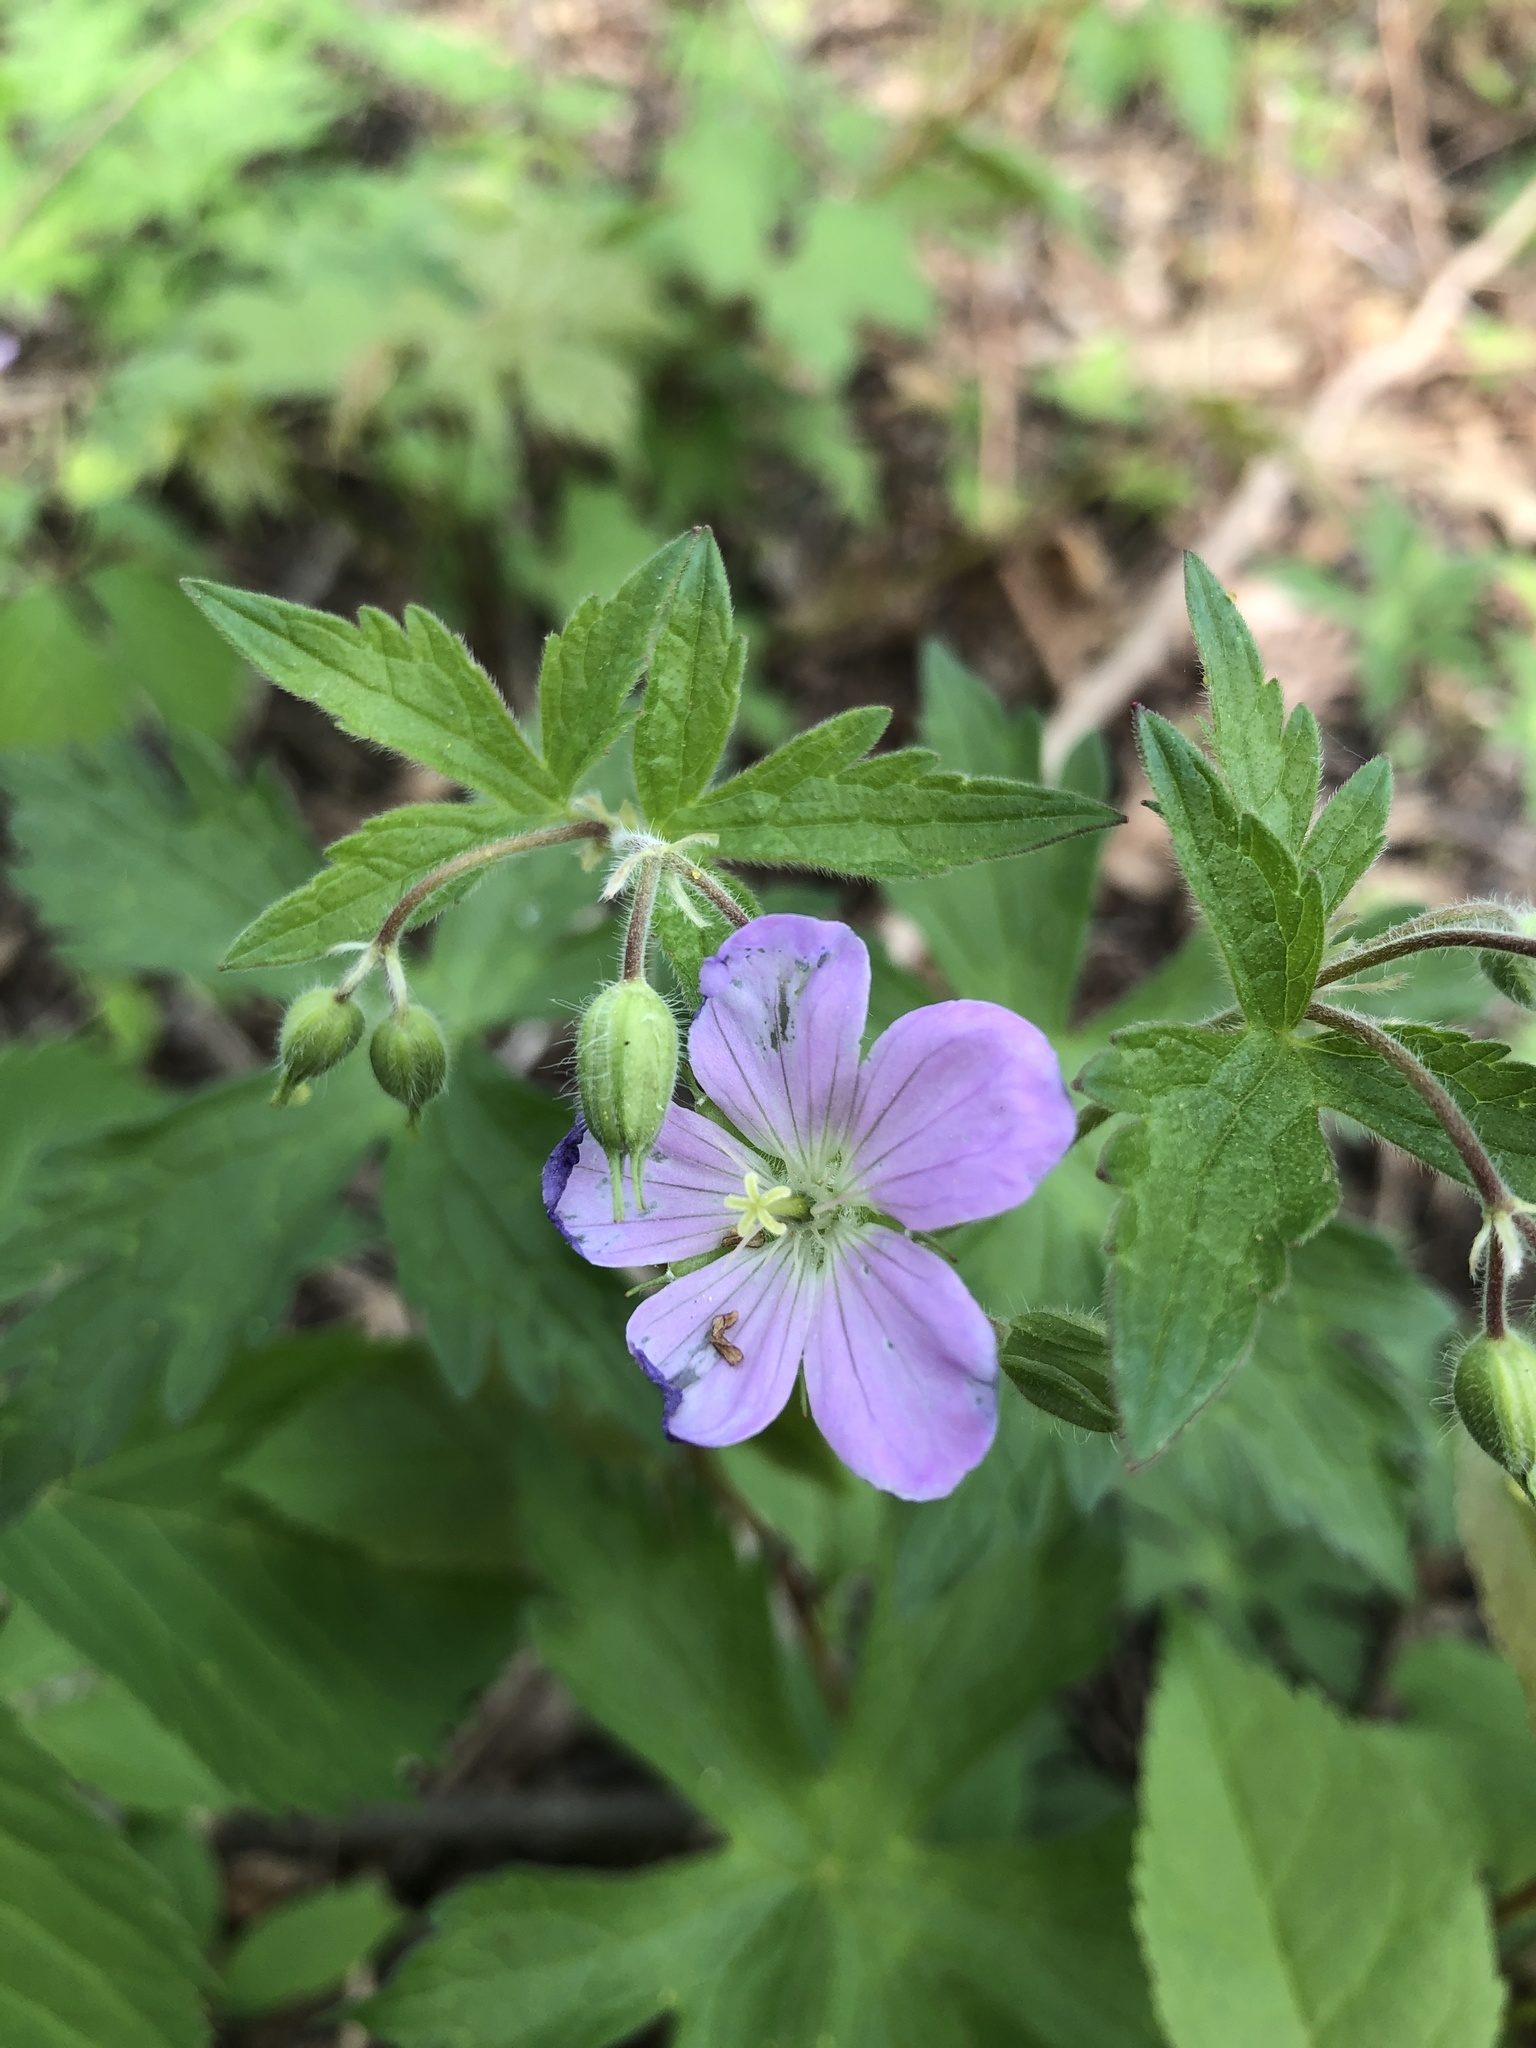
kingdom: Plantae
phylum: Tracheophyta
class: Magnoliopsida
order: Geraniales
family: Geraniaceae
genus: Geranium
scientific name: Geranium maculatum
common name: Spotted geranium
